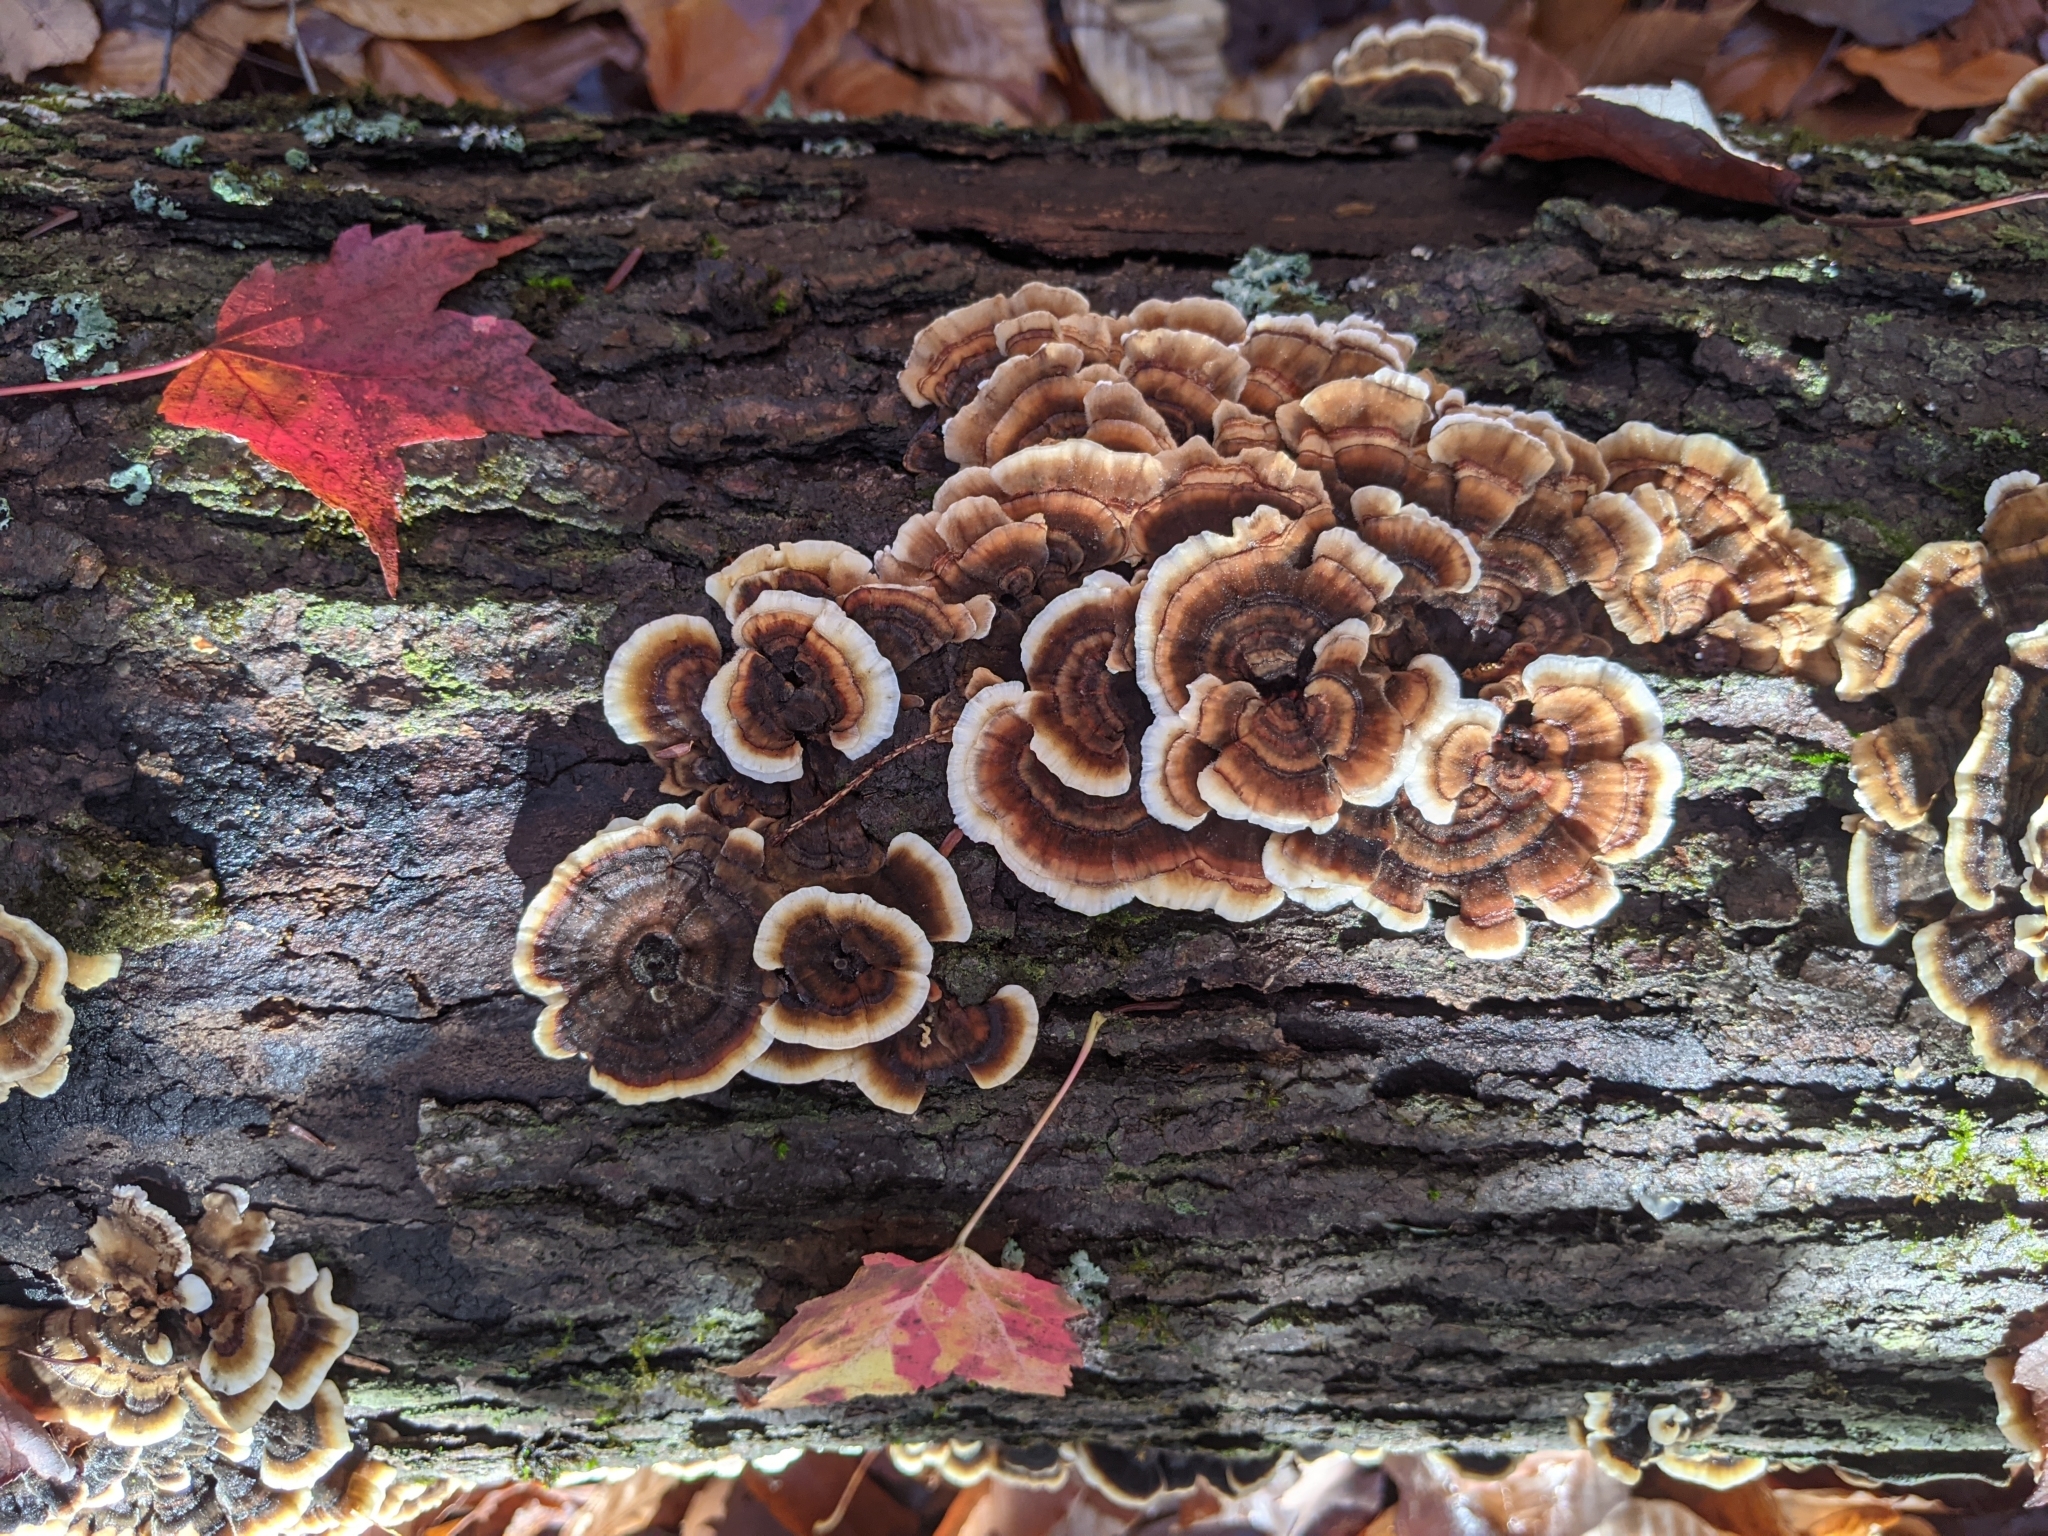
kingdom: Fungi
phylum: Basidiomycota
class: Agaricomycetes
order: Polyporales
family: Polyporaceae
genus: Trametes
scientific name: Trametes versicolor
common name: Turkeytail
